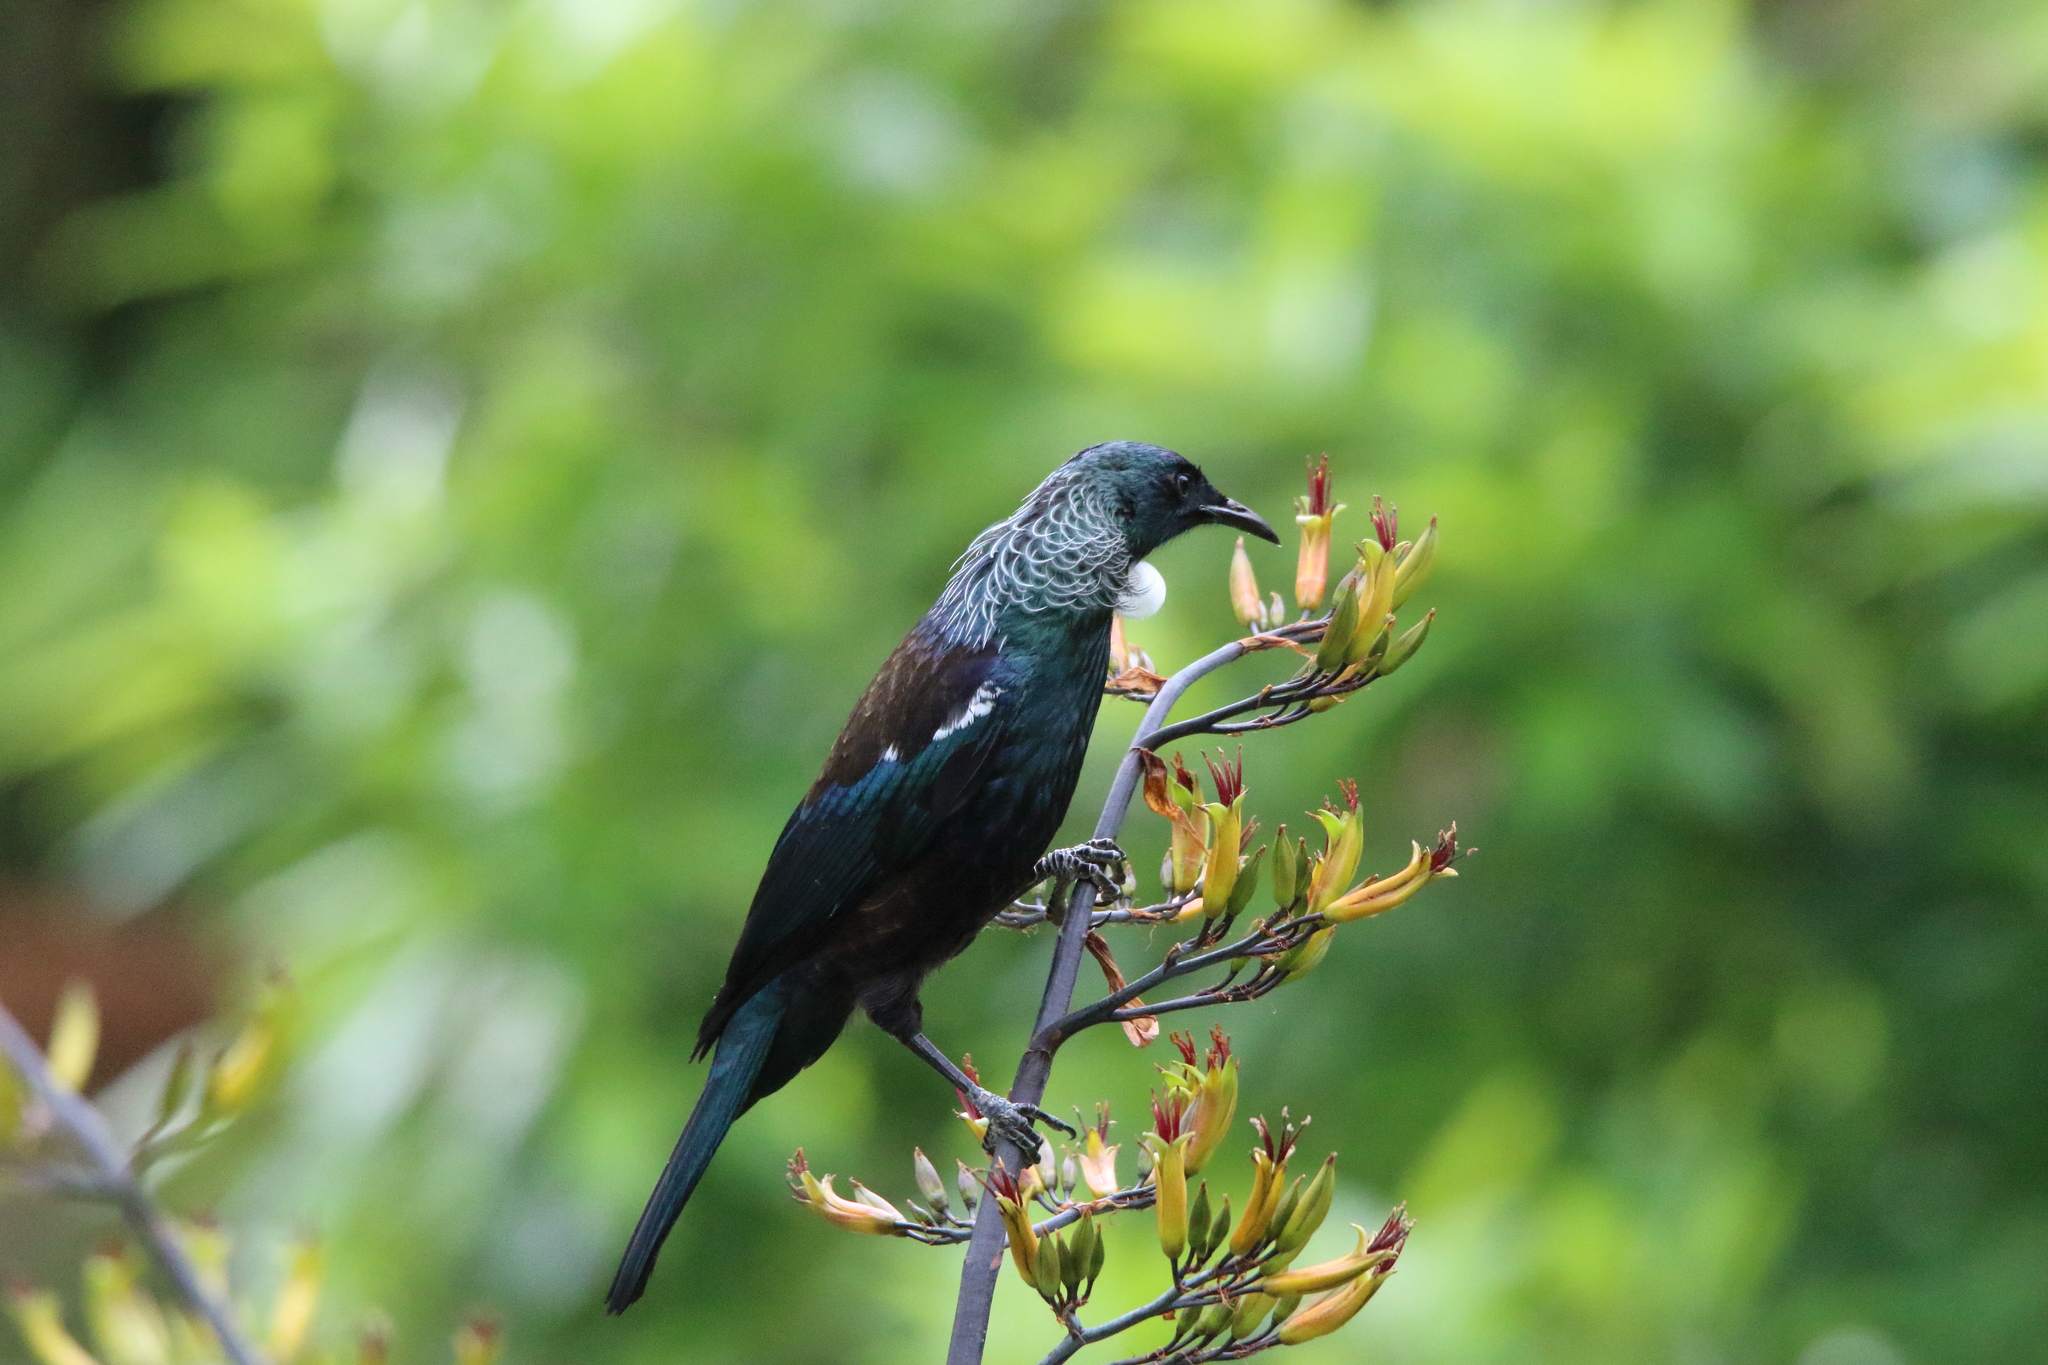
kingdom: Animalia
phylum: Chordata
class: Aves
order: Passeriformes
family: Meliphagidae
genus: Prosthemadera
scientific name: Prosthemadera novaeseelandiae
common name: Tui
